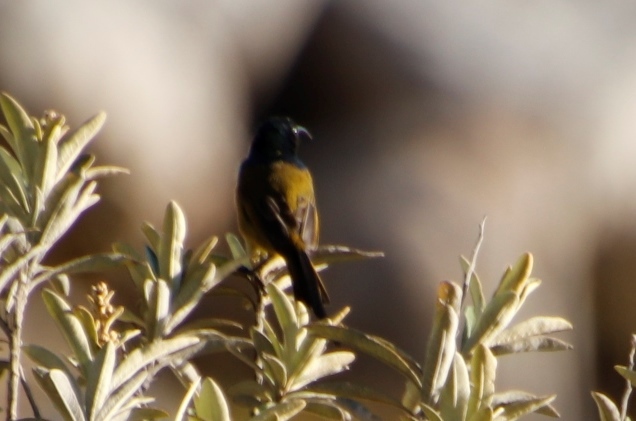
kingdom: Animalia
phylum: Chordata
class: Aves
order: Passeriformes
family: Nectariniidae
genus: Anthobaphes
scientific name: Anthobaphes violacea
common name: Orange-breasted sunbird
